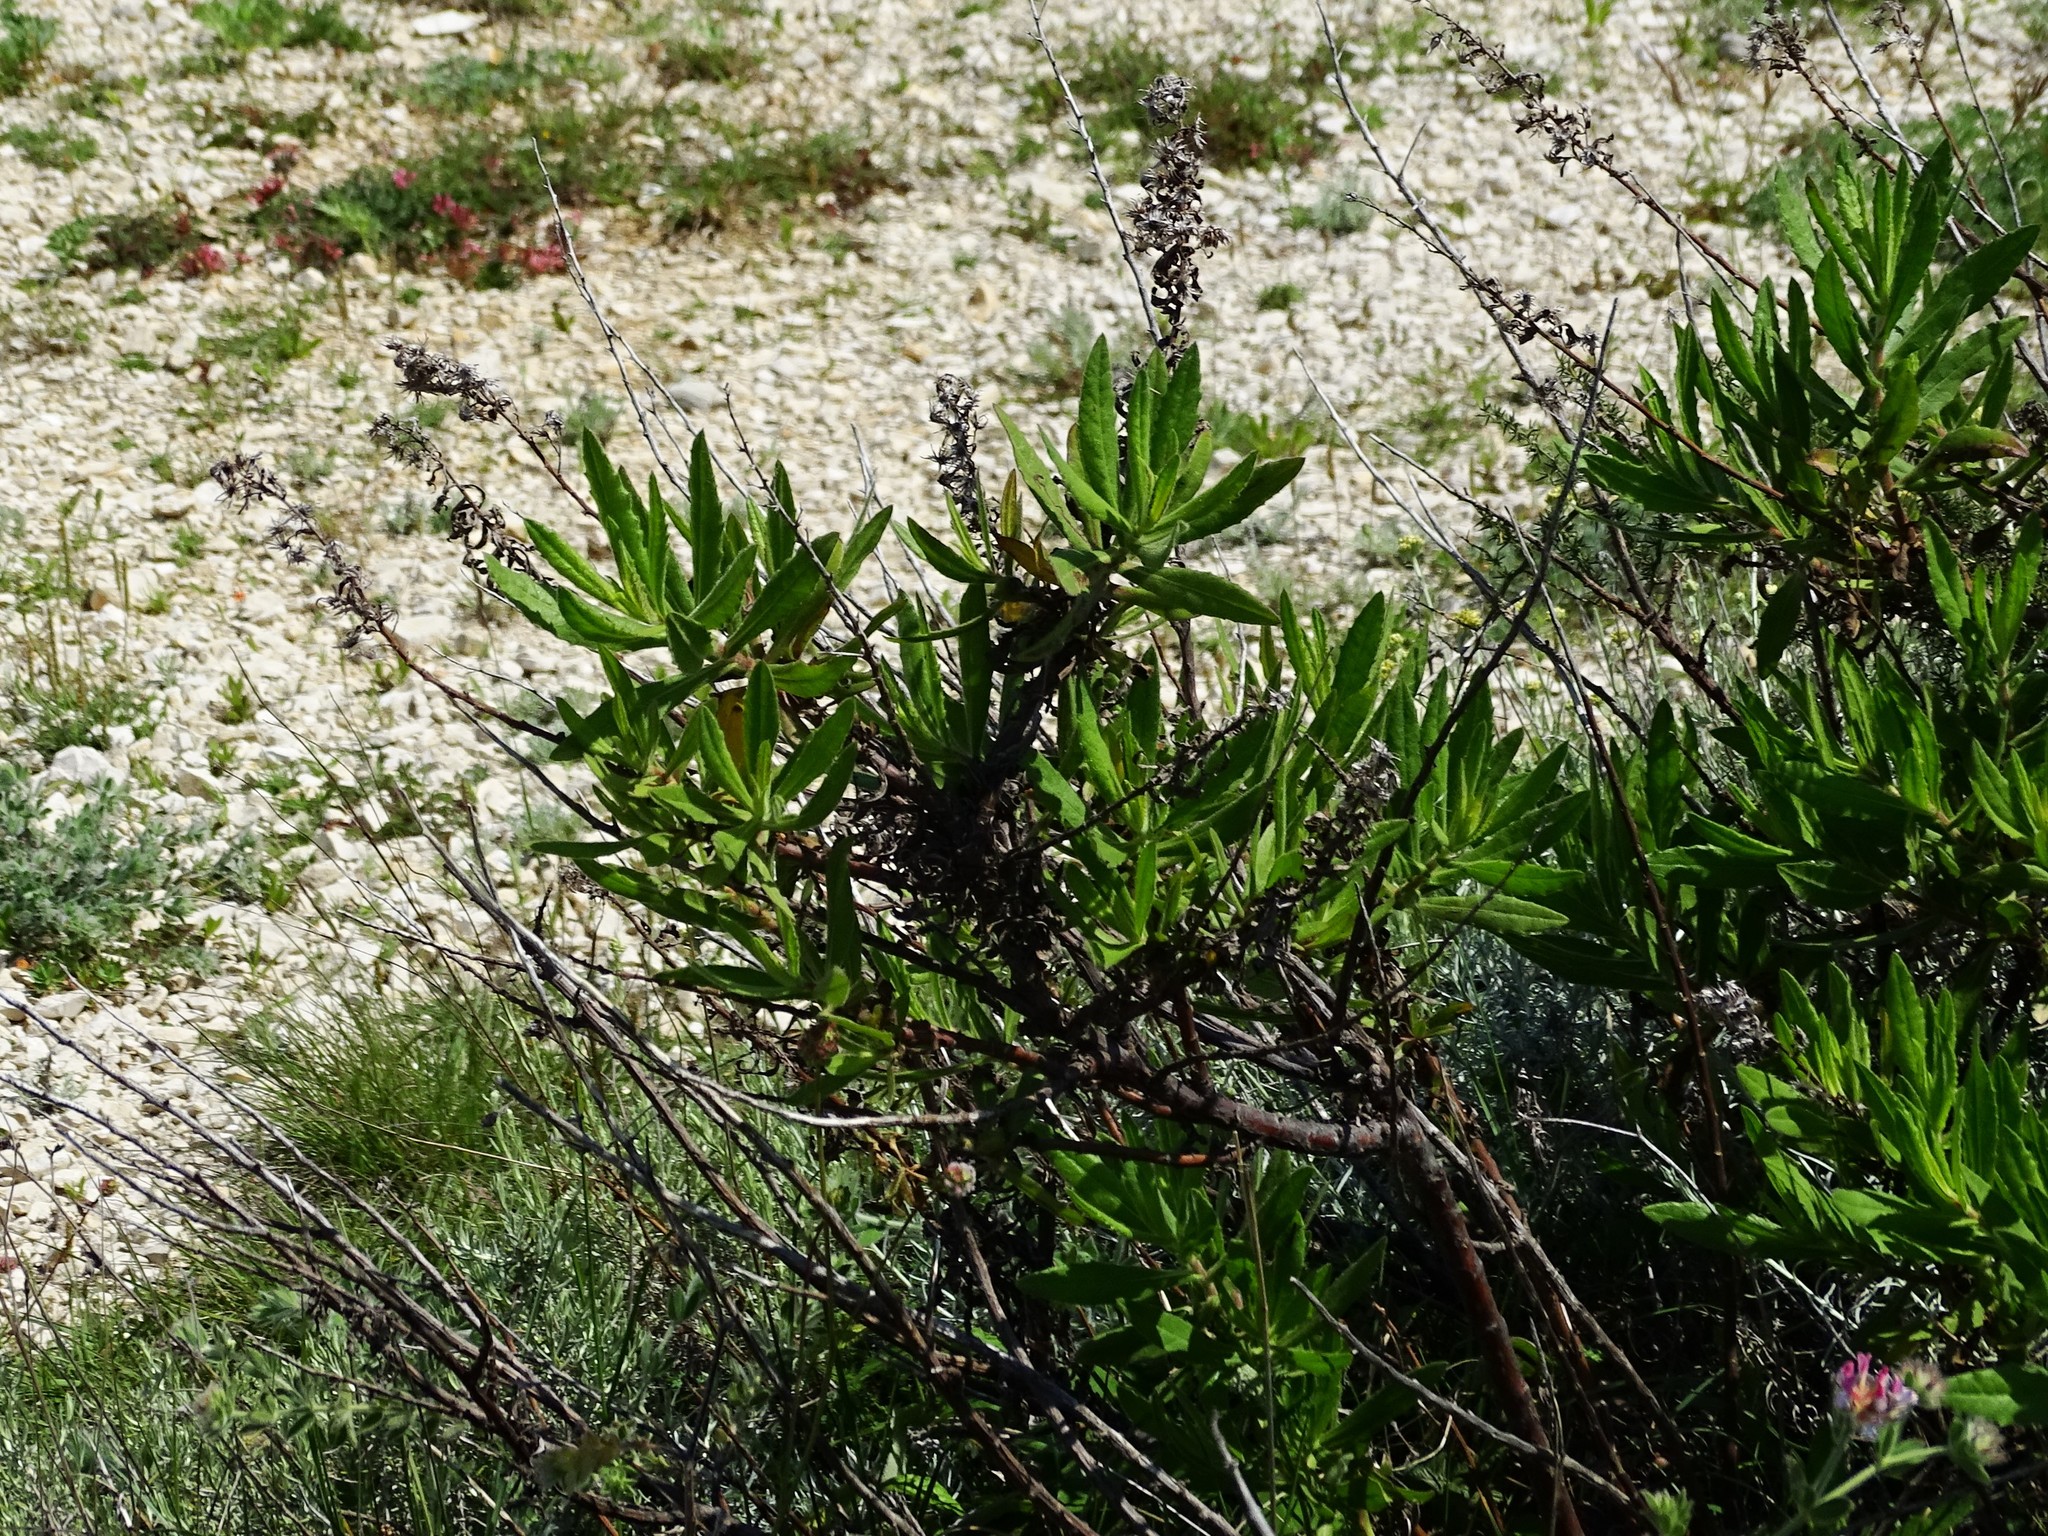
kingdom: Plantae
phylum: Tracheophyta
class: Magnoliopsida
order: Asterales
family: Asteraceae
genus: Dittrichia
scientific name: Dittrichia viscosa
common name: Woody fleabane
